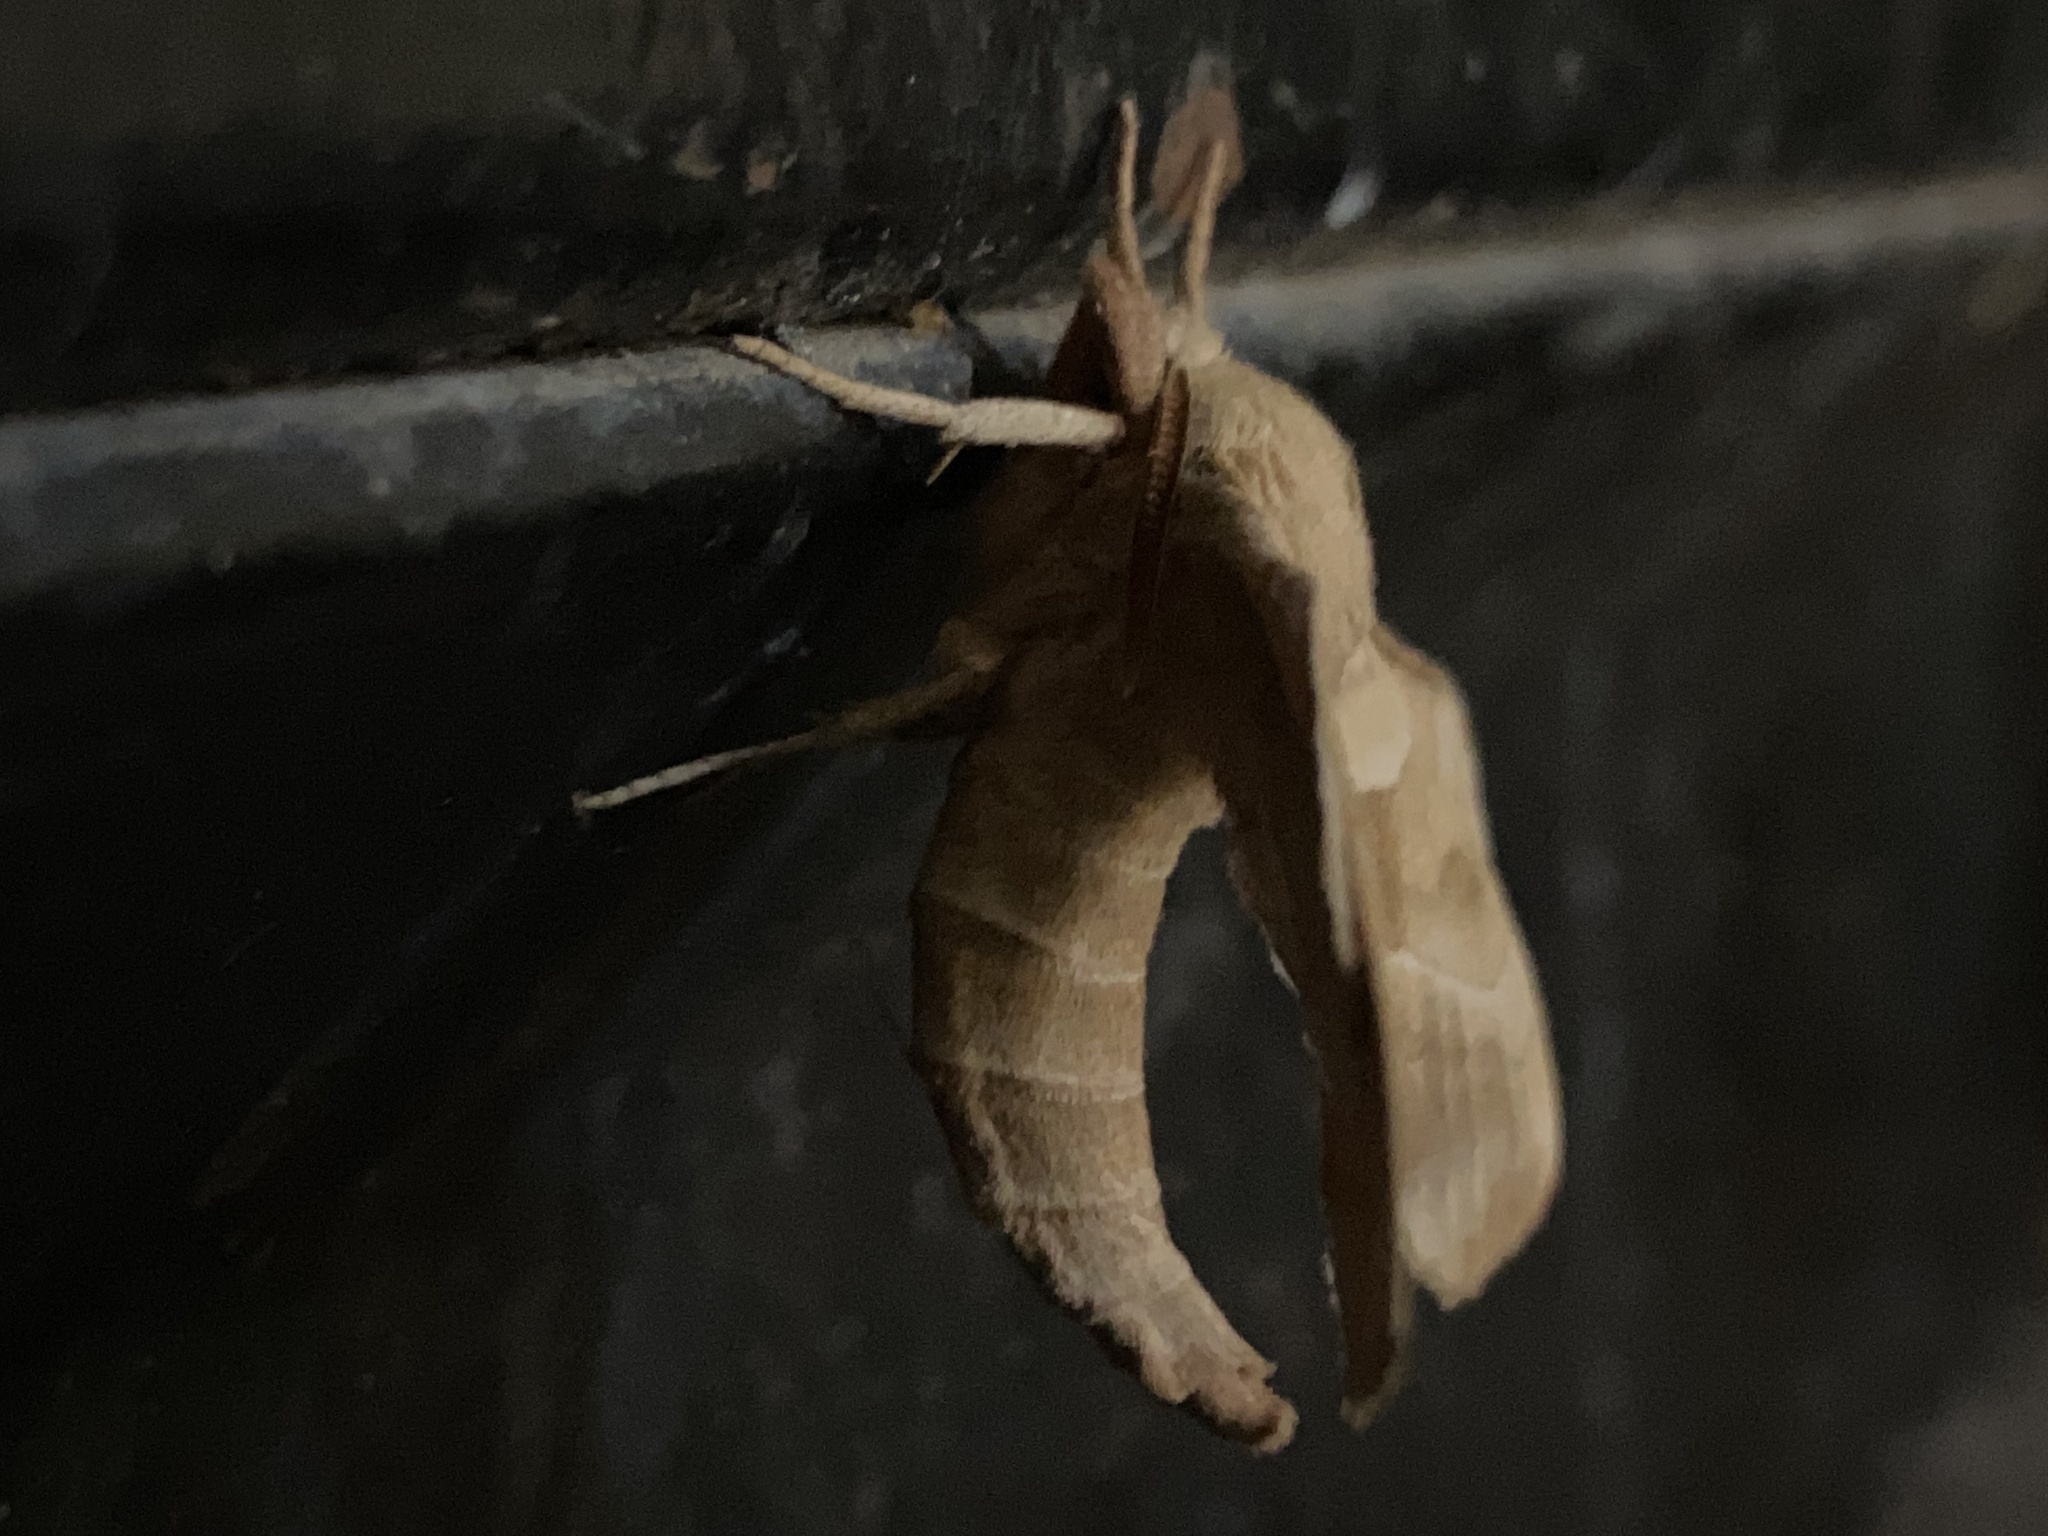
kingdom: Animalia
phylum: Arthropoda
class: Insecta
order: Lepidoptera
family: Sphingidae
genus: Amorpha
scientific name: Amorpha juglandis
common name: Walnut sphinx
